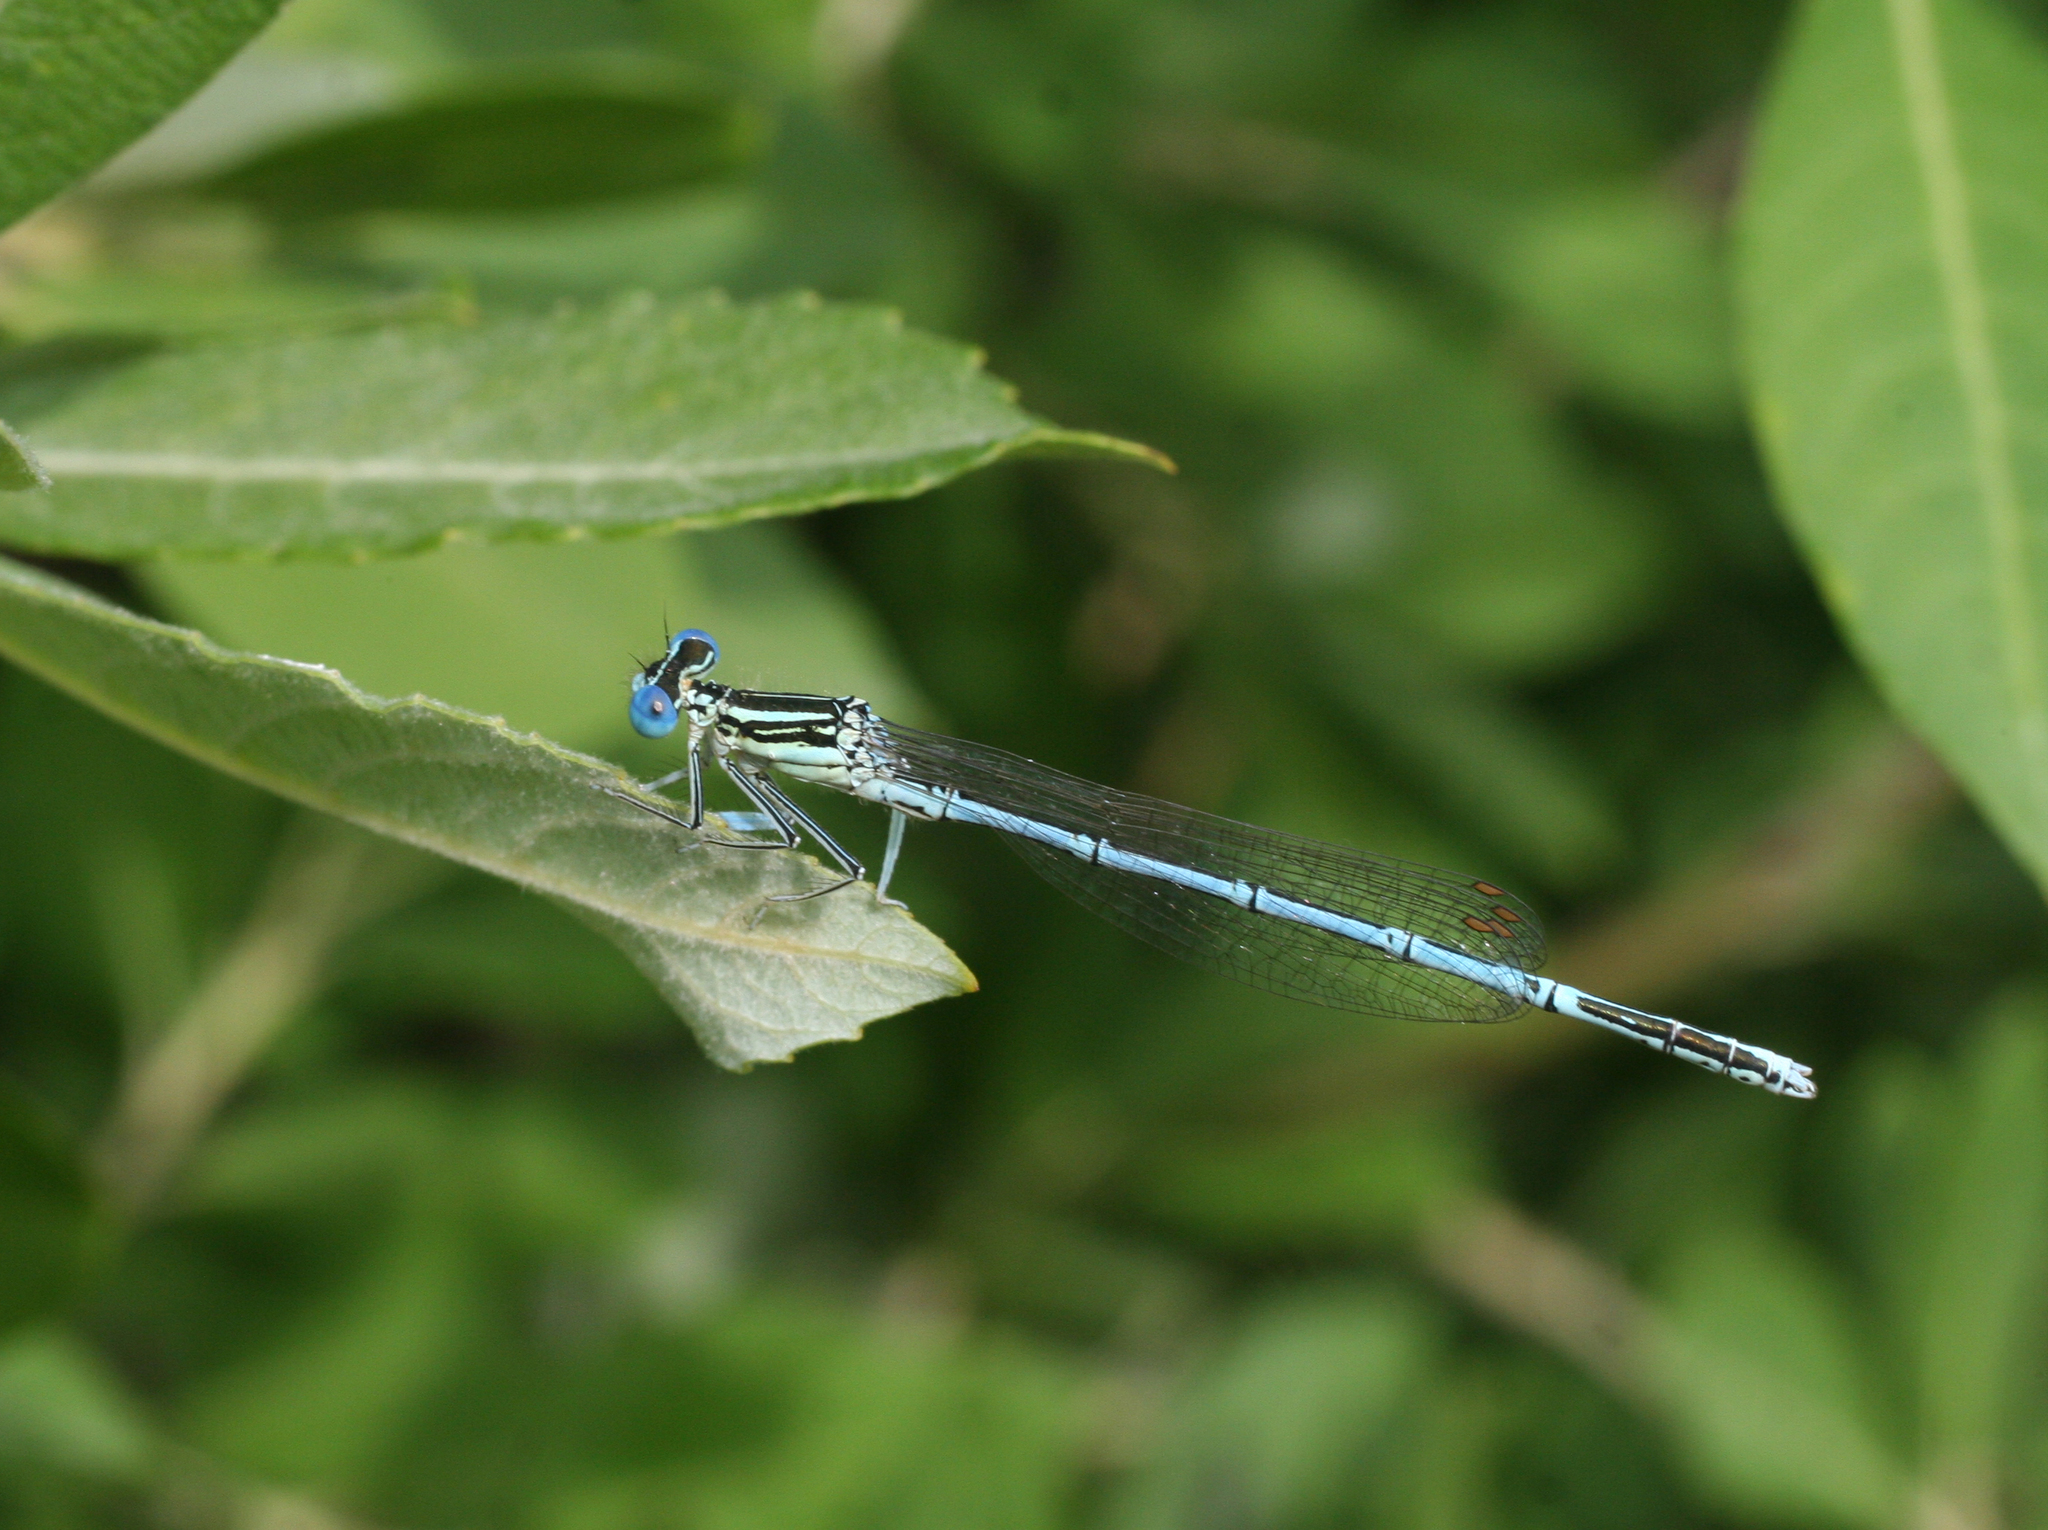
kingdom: Animalia
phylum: Arthropoda
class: Insecta
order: Odonata
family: Platycnemididae
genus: Platycnemis
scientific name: Platycnemis pennipes
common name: White-legged damselfly
